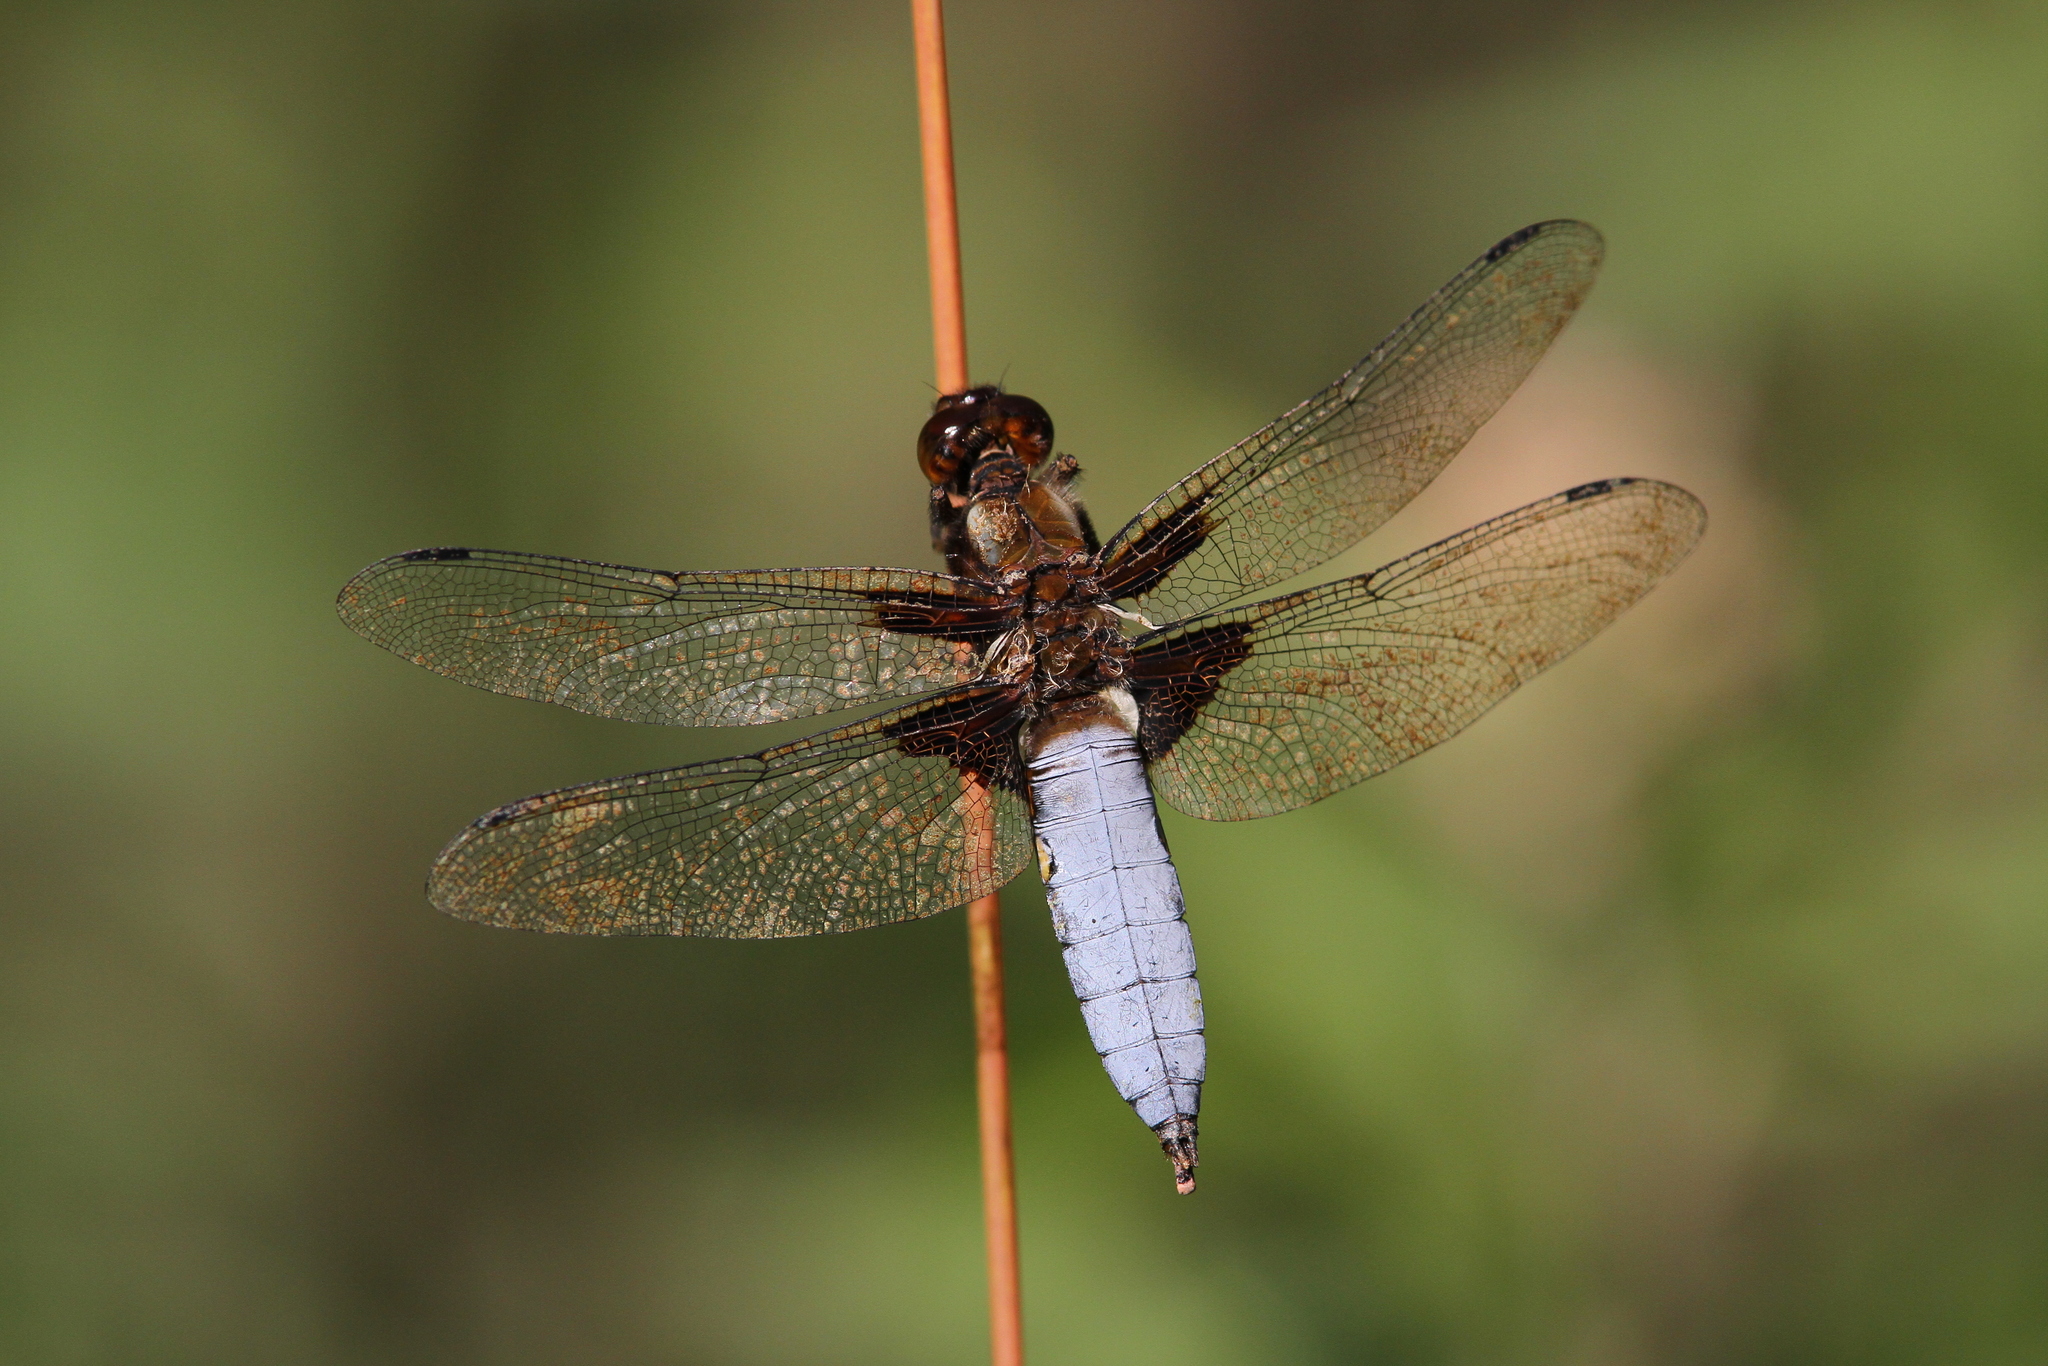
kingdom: Animalia
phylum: Arthropoda
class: Insecta
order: Odonata
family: Libellulidae
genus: Libellula
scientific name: Libellula depressa
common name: Broad-bodied chaser
